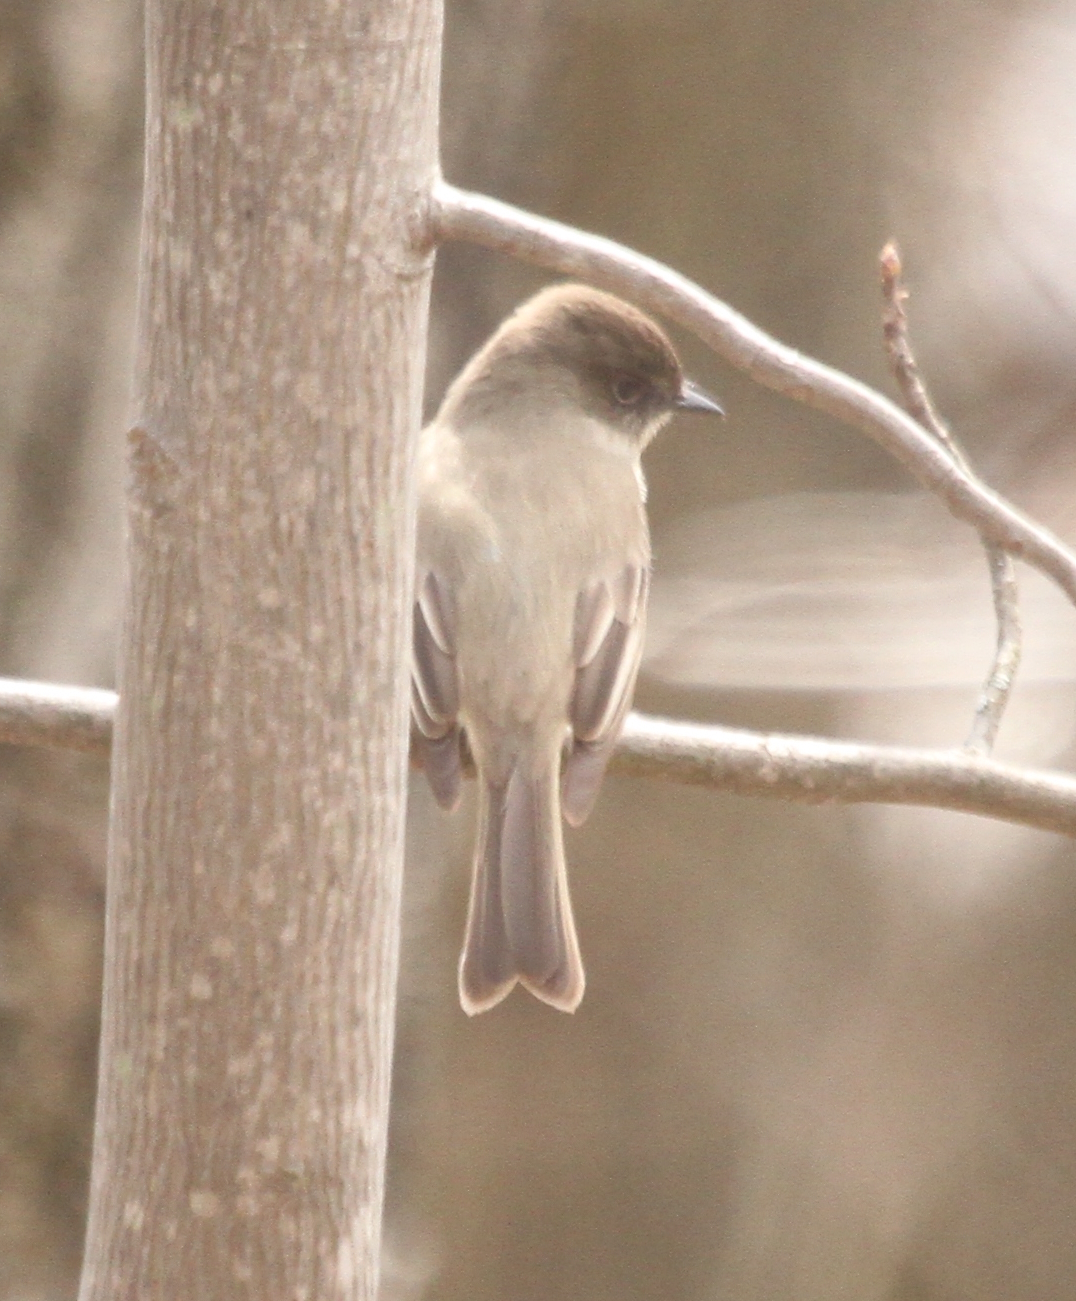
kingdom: Animalia
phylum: Chordata
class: Aves
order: Passeriformes
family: Tyrannidae
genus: Sayornis
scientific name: Sayornis phoebe
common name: Eastern phoebe
